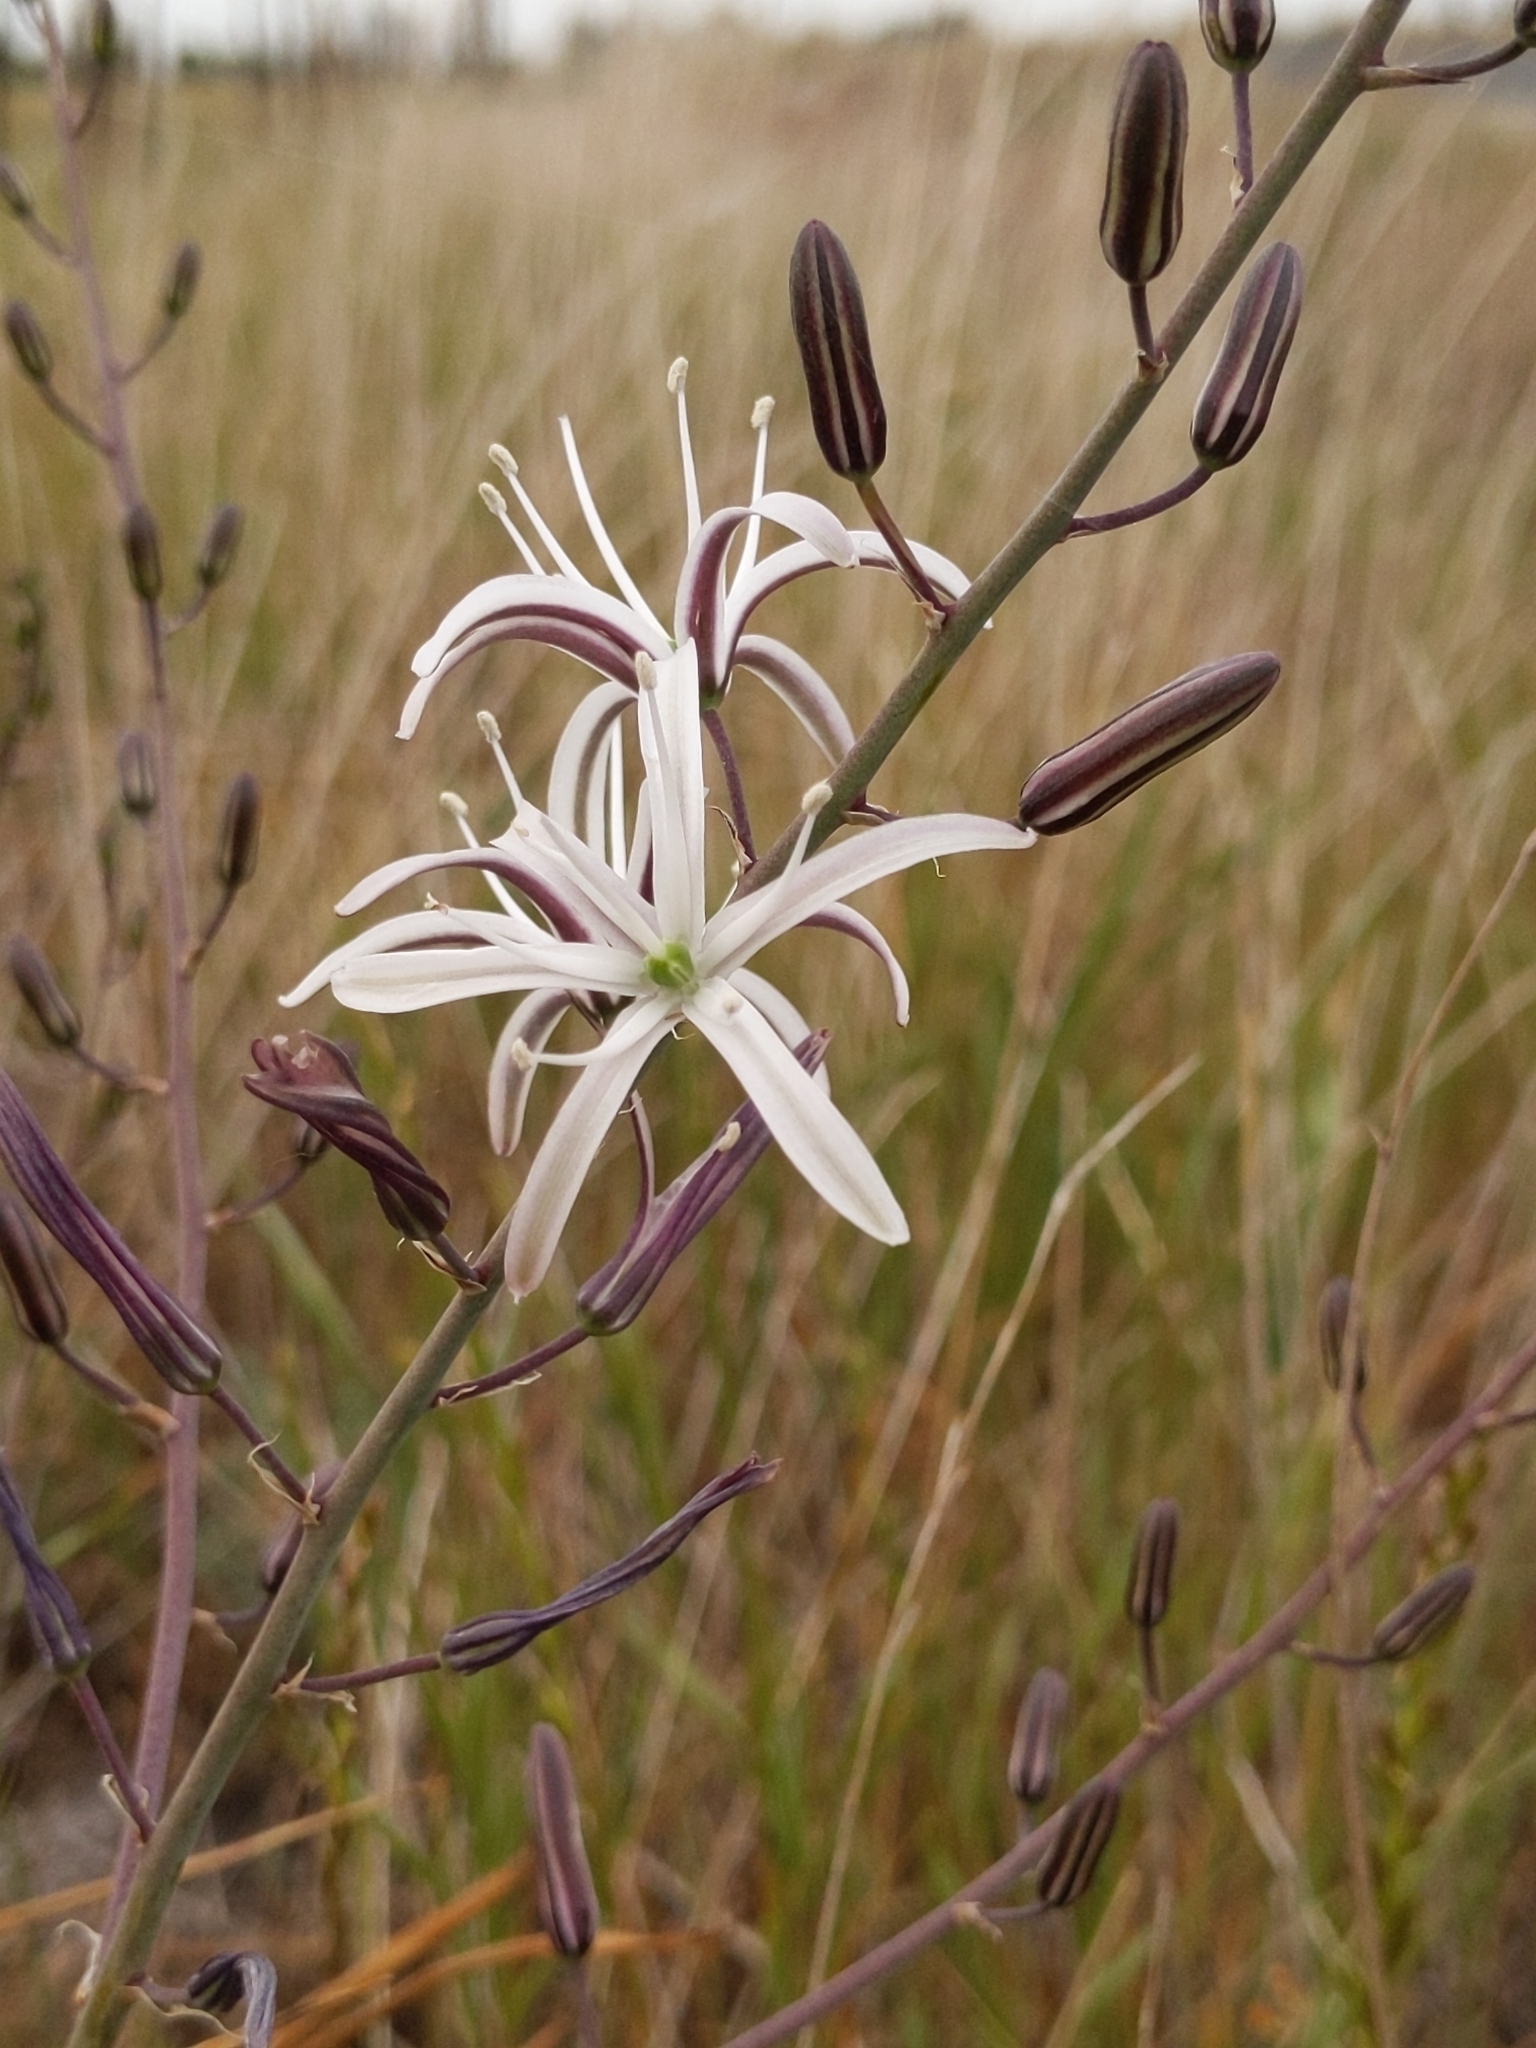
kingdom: Plantae
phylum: Tracheophyta
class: Liliopsida
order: Asparagales
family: Asparagaceae
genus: Chlorogalum
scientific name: Chlorogalum pomeridianum
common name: Amole
